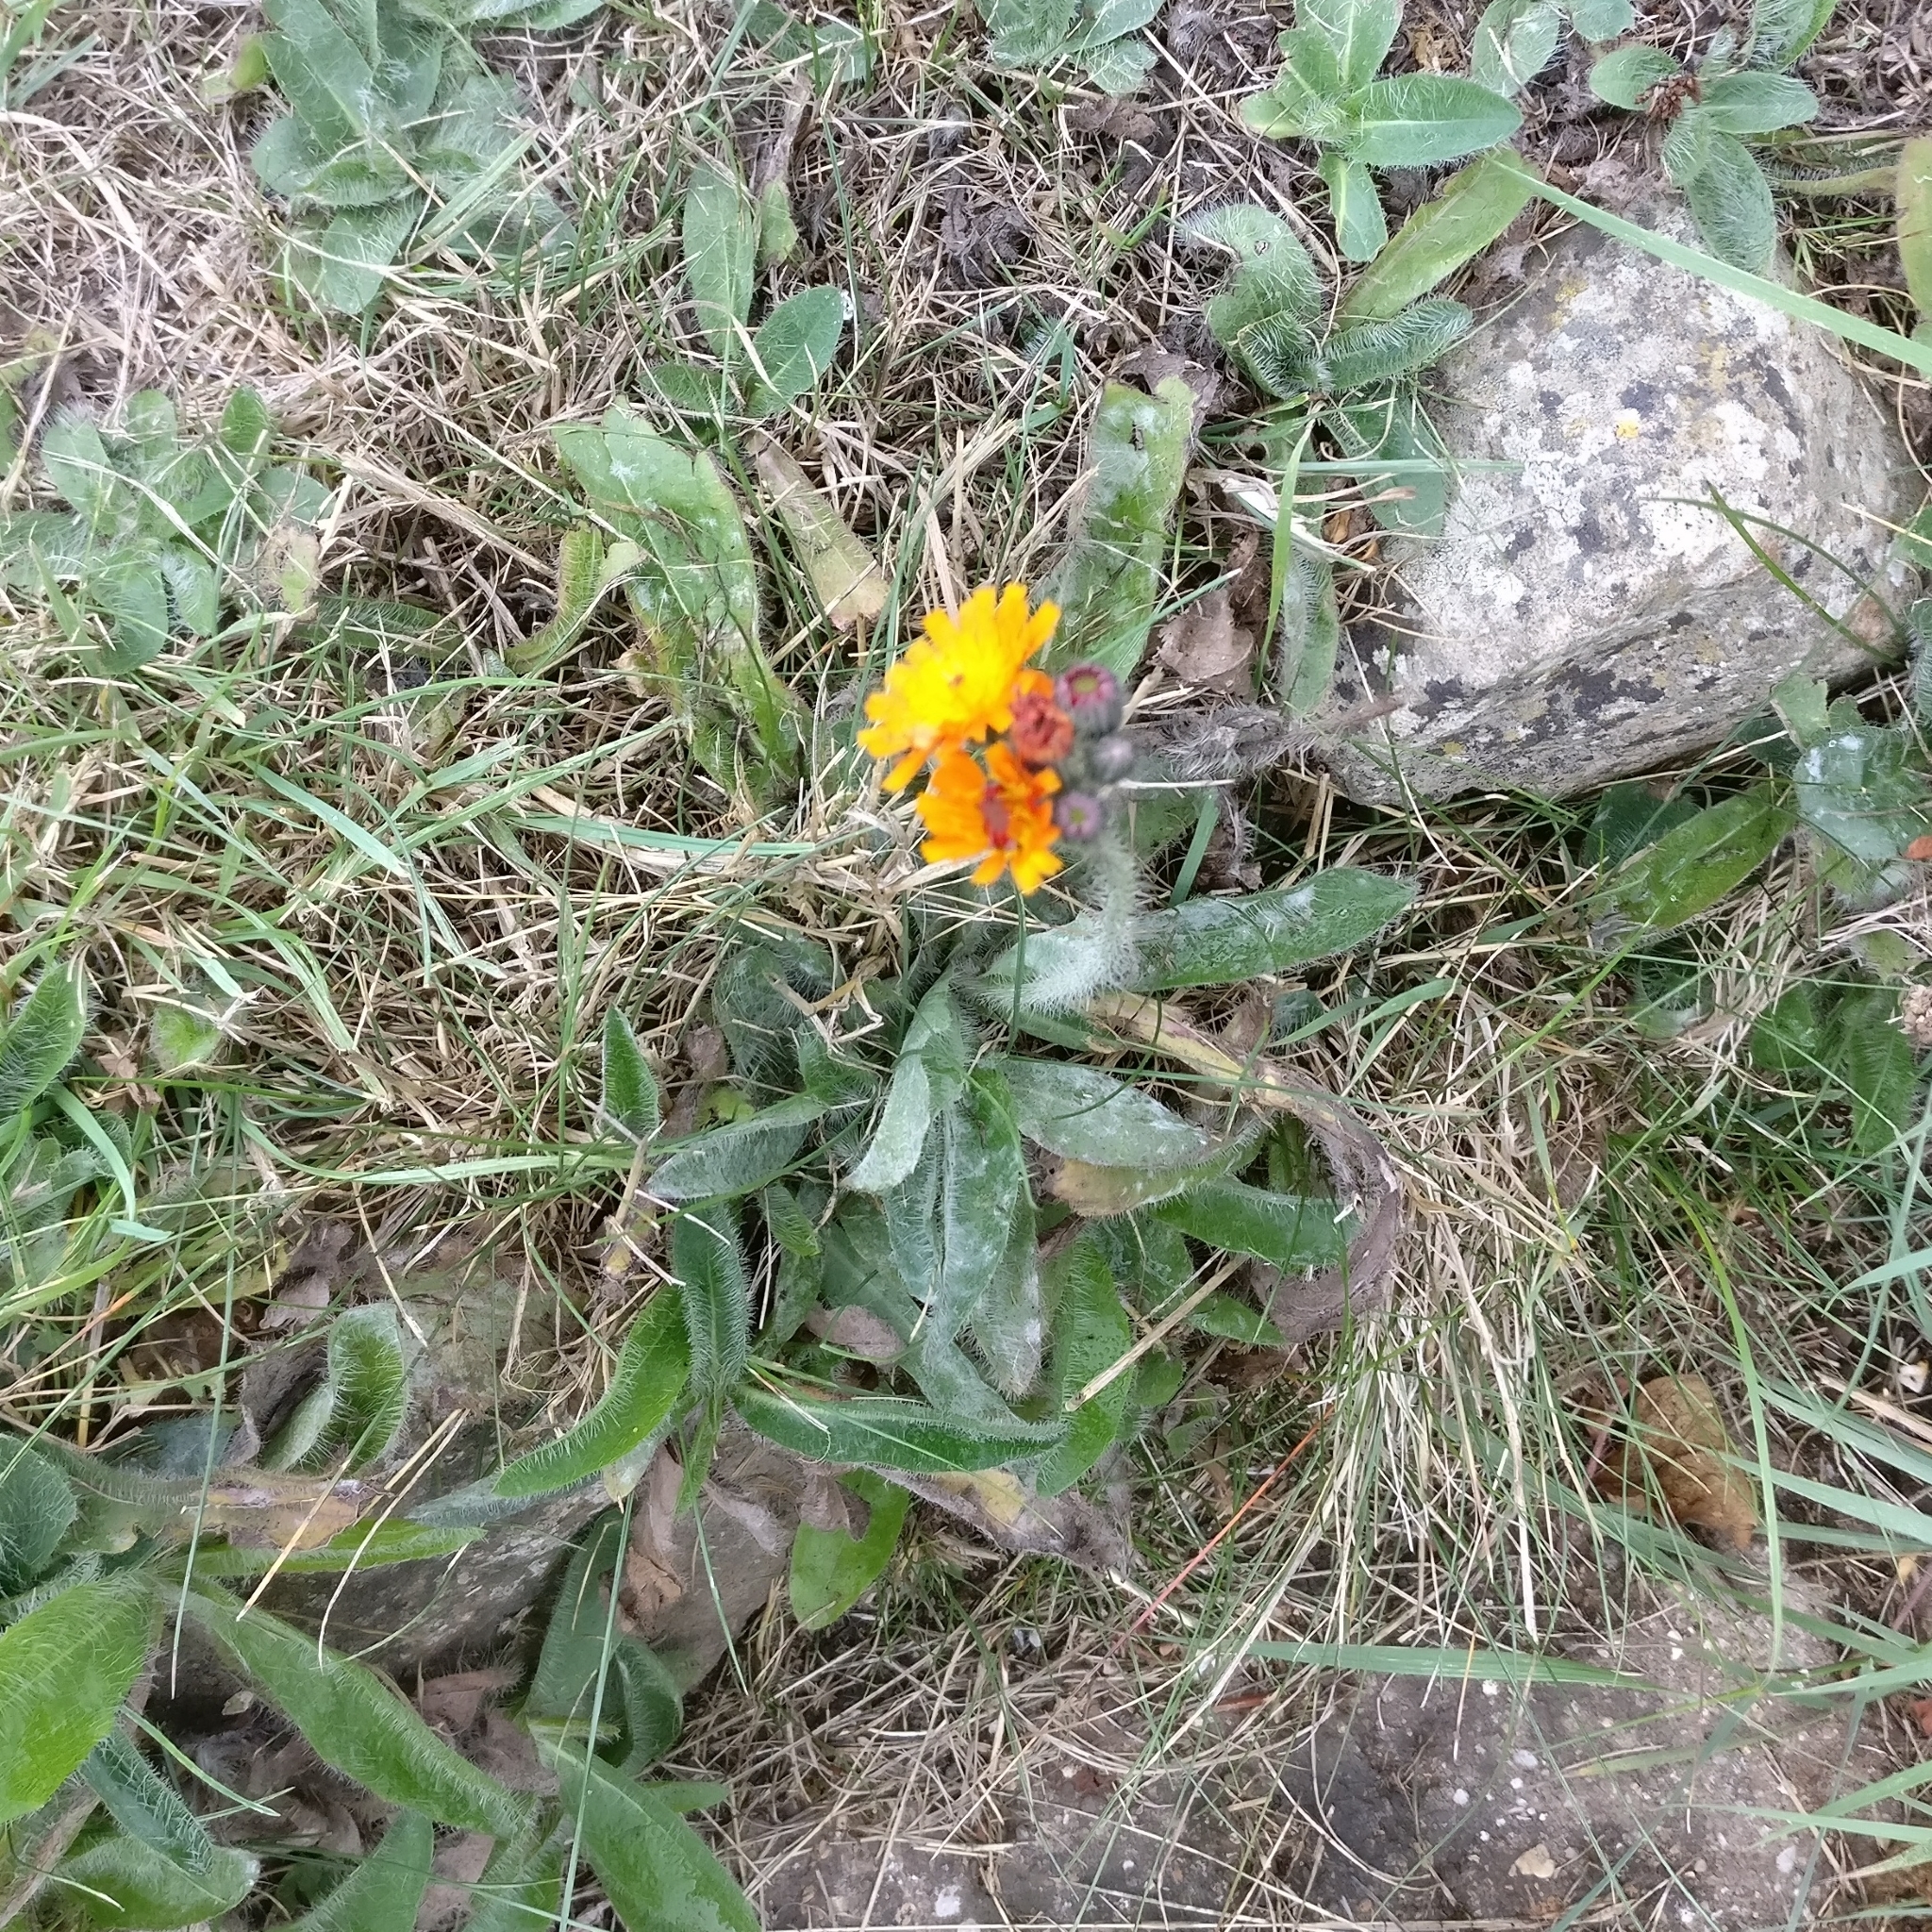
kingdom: Plantae
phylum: Tracheophyta
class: Magnoliopsida
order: Asterales
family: Asteraceae
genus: Pilosella
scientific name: Pilosella aurantiaca
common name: Fox-and-cubs
